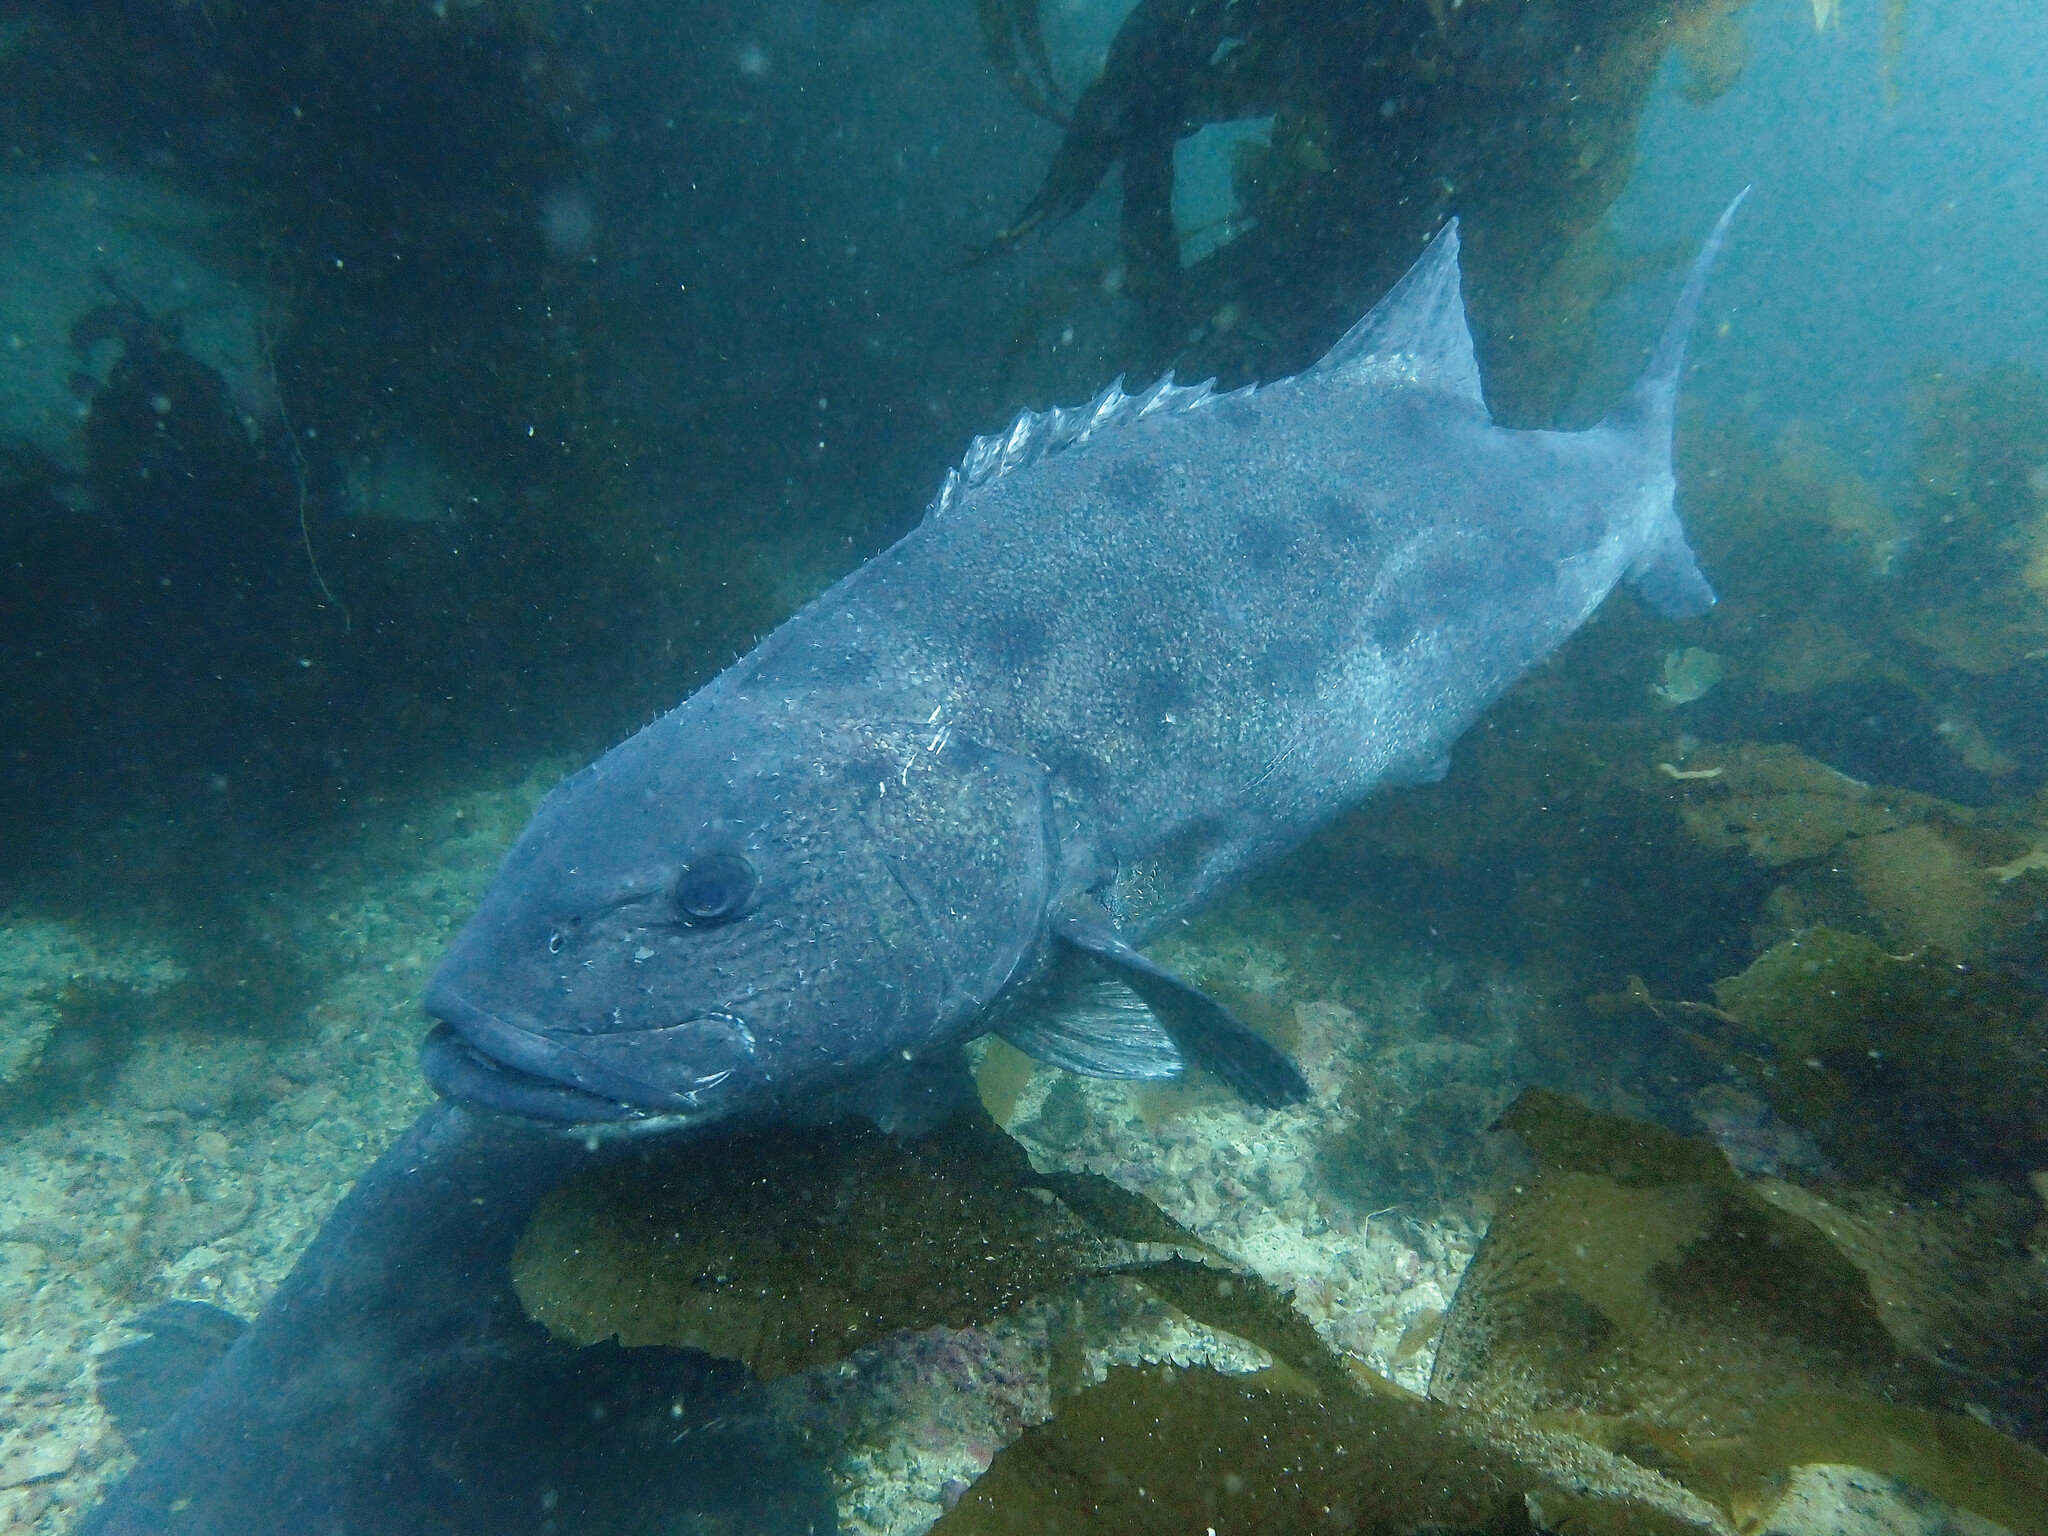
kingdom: Animalia
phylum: Chordata
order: Perciformes
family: Polyprionidae
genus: Stereolepis
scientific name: Stereolepis gigas
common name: Giant sea bass
